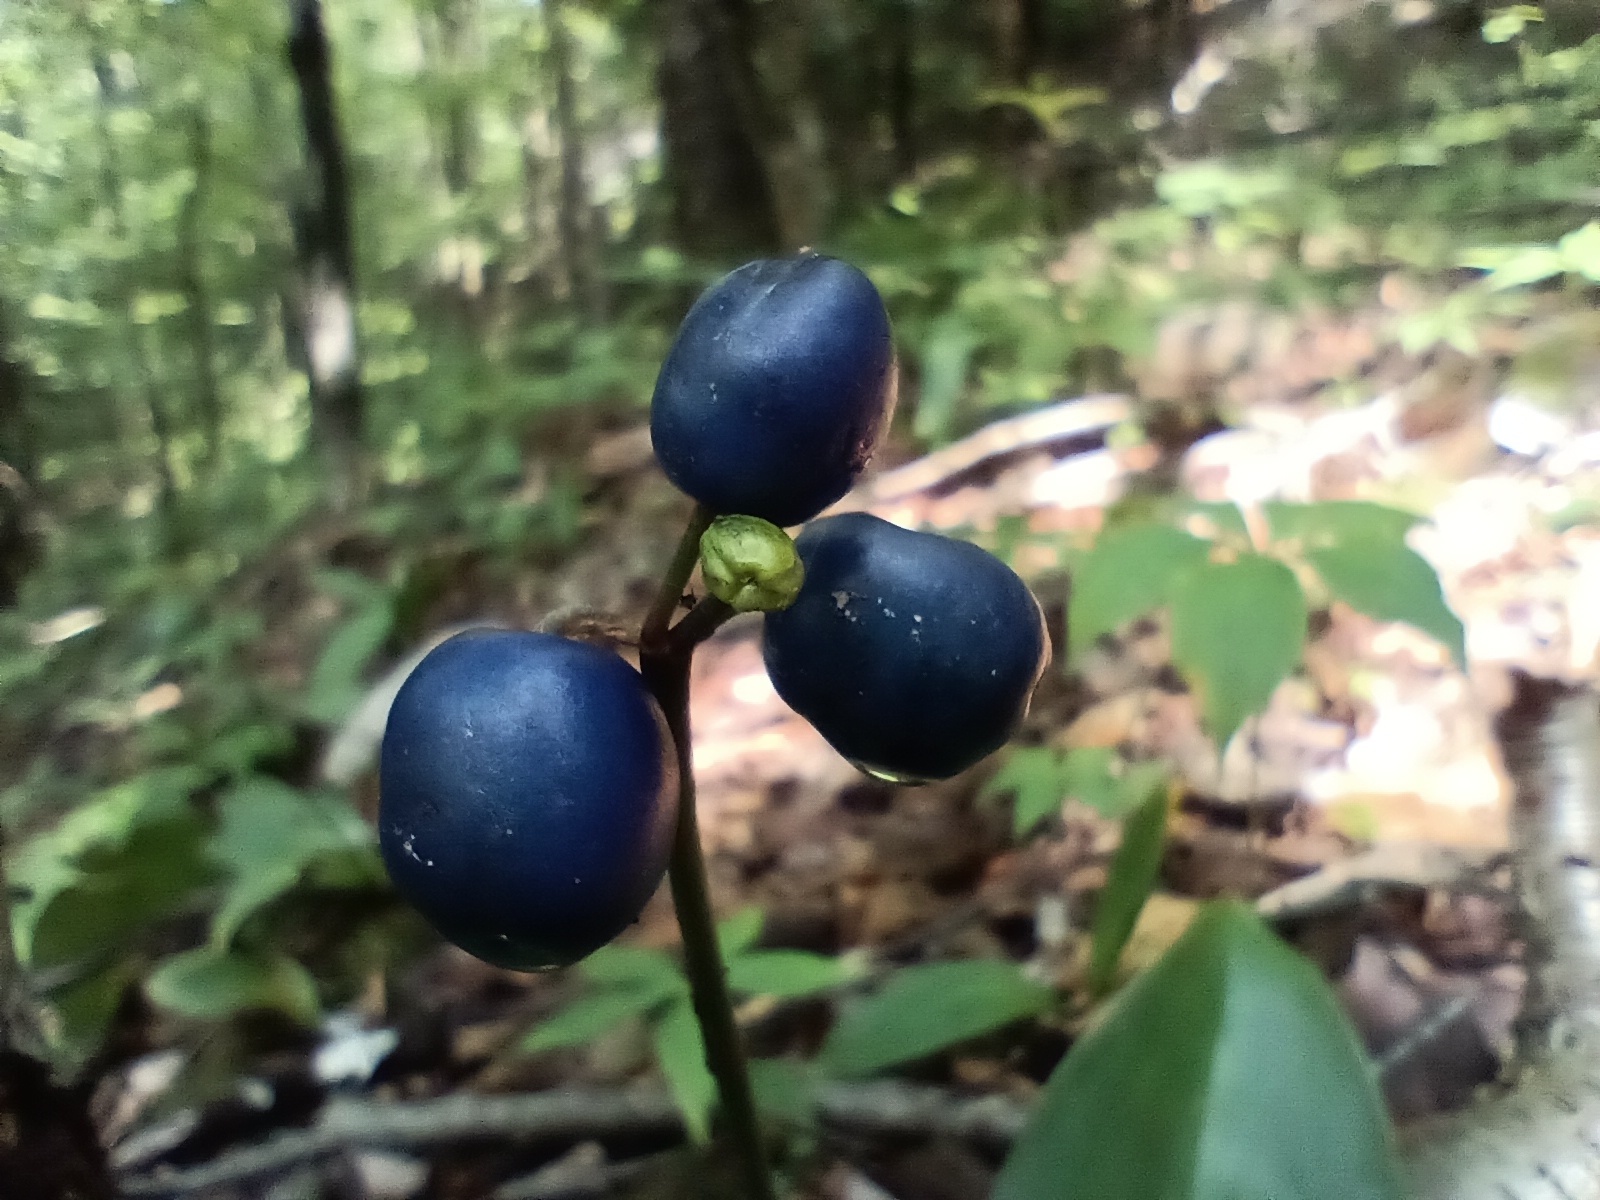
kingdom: Plantae
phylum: Tracheophyta
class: Liliopsida
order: Liliales
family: Liliaceae
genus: Clintonia
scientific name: Clintonia borealis
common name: Yellow clintonia
